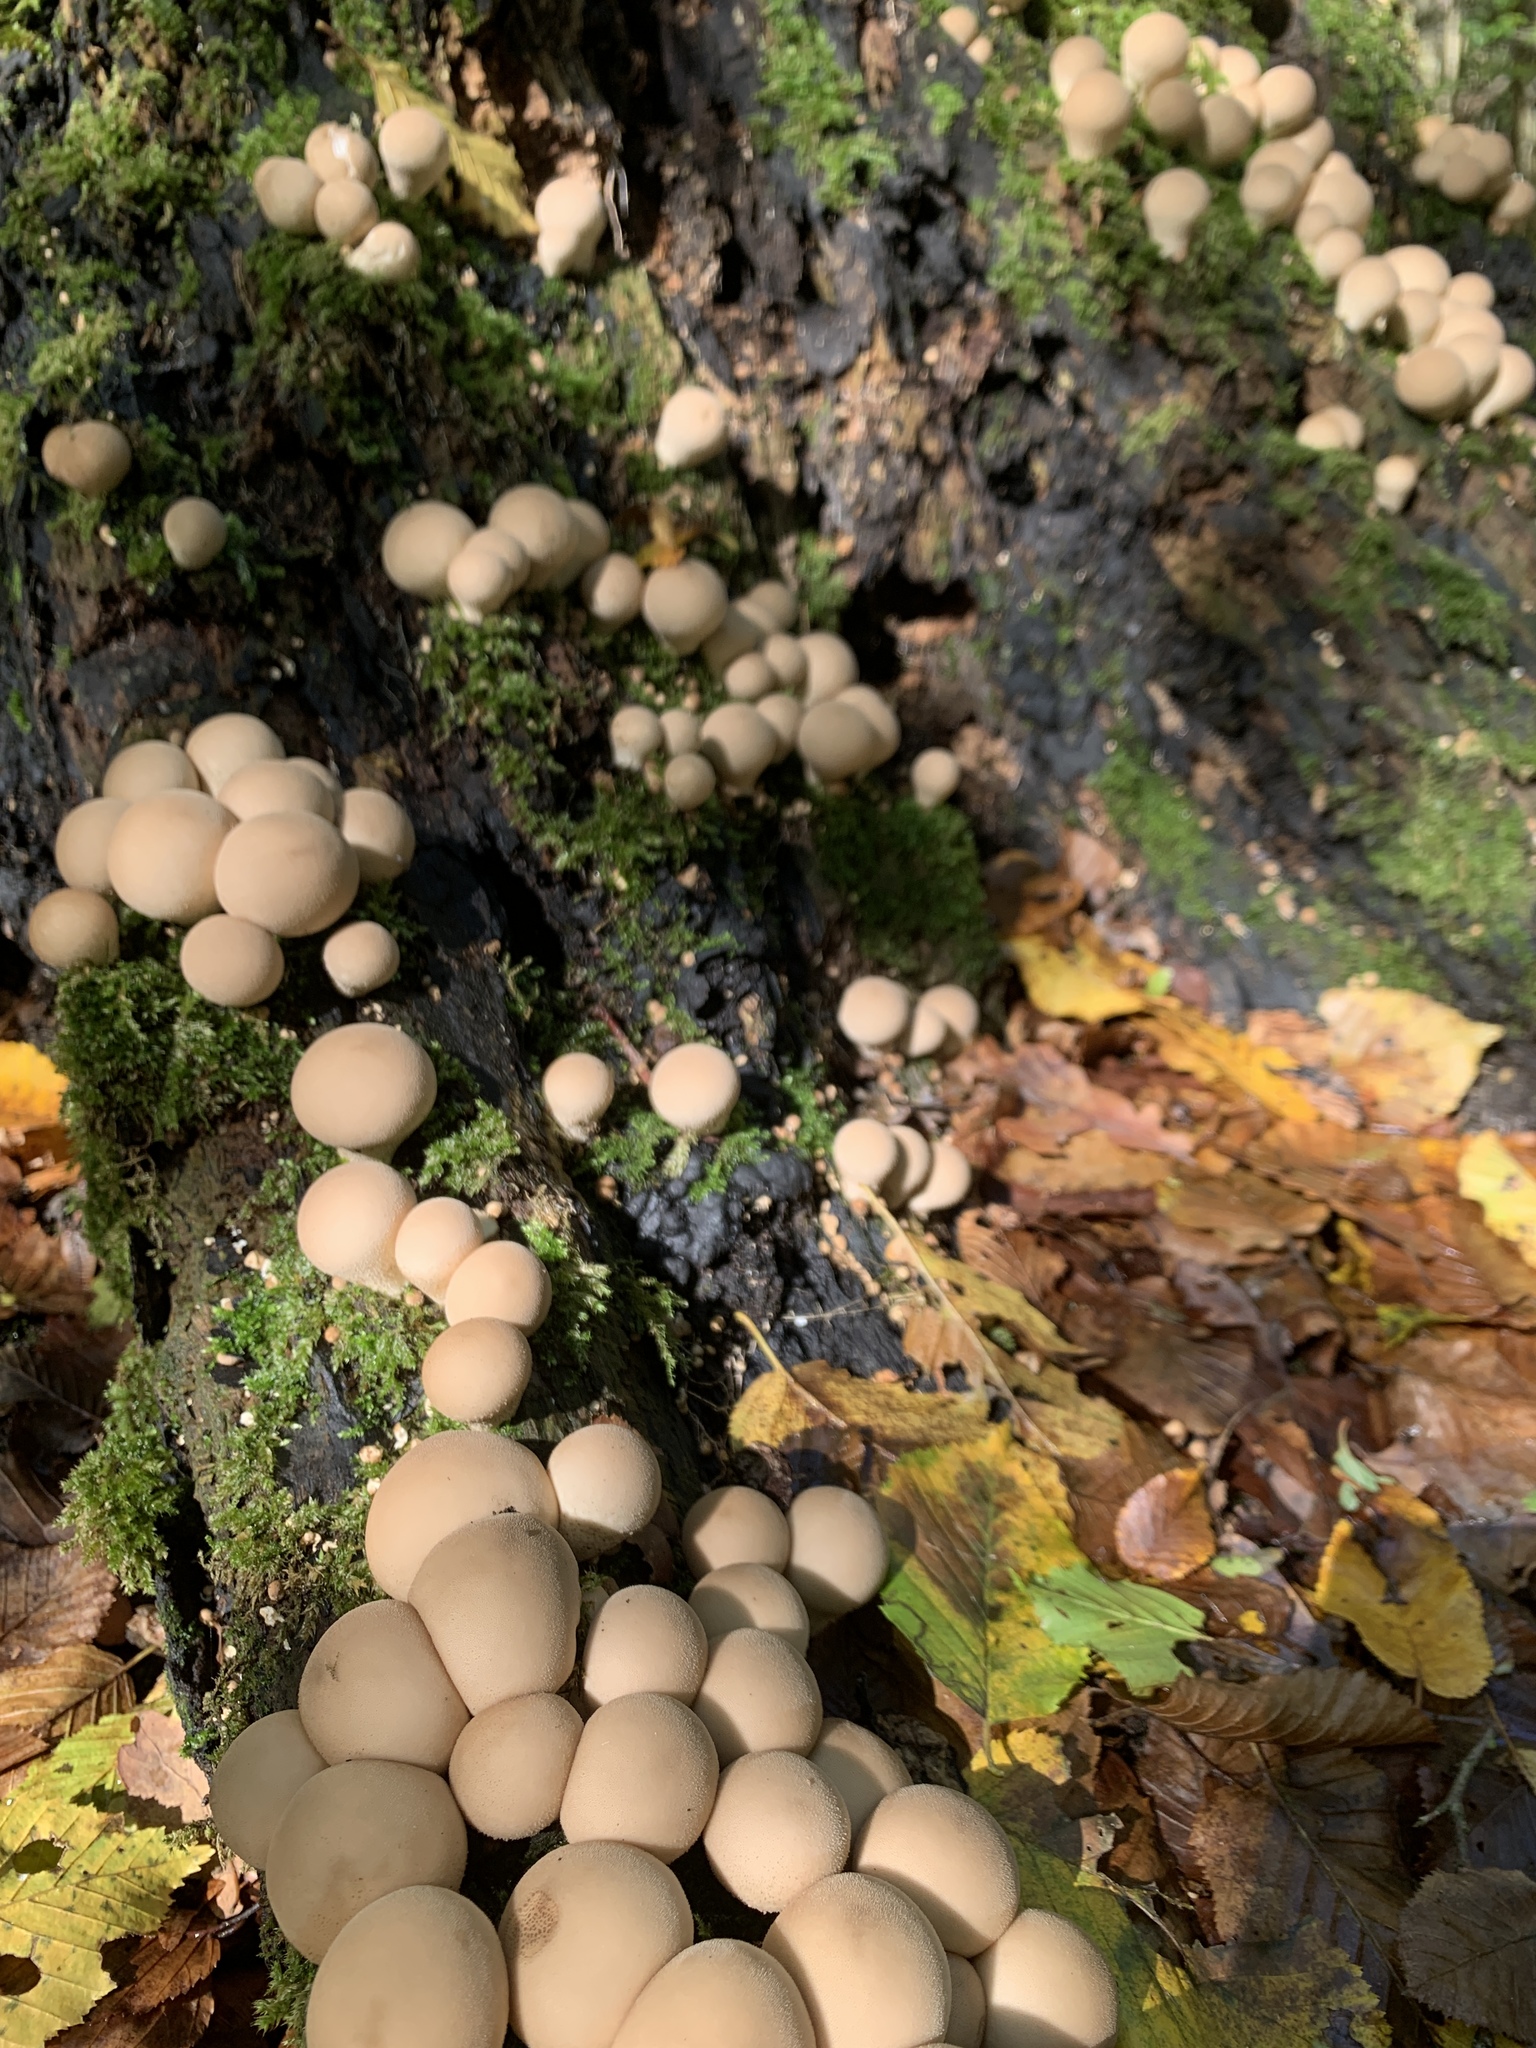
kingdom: Fungi
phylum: Basidiomycota
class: Agaricomycetes
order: Agaricales
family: Lycoperdaceae
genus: Apioperdon
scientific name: Apioperdon pyriforme
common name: Pear-shaped puffball
